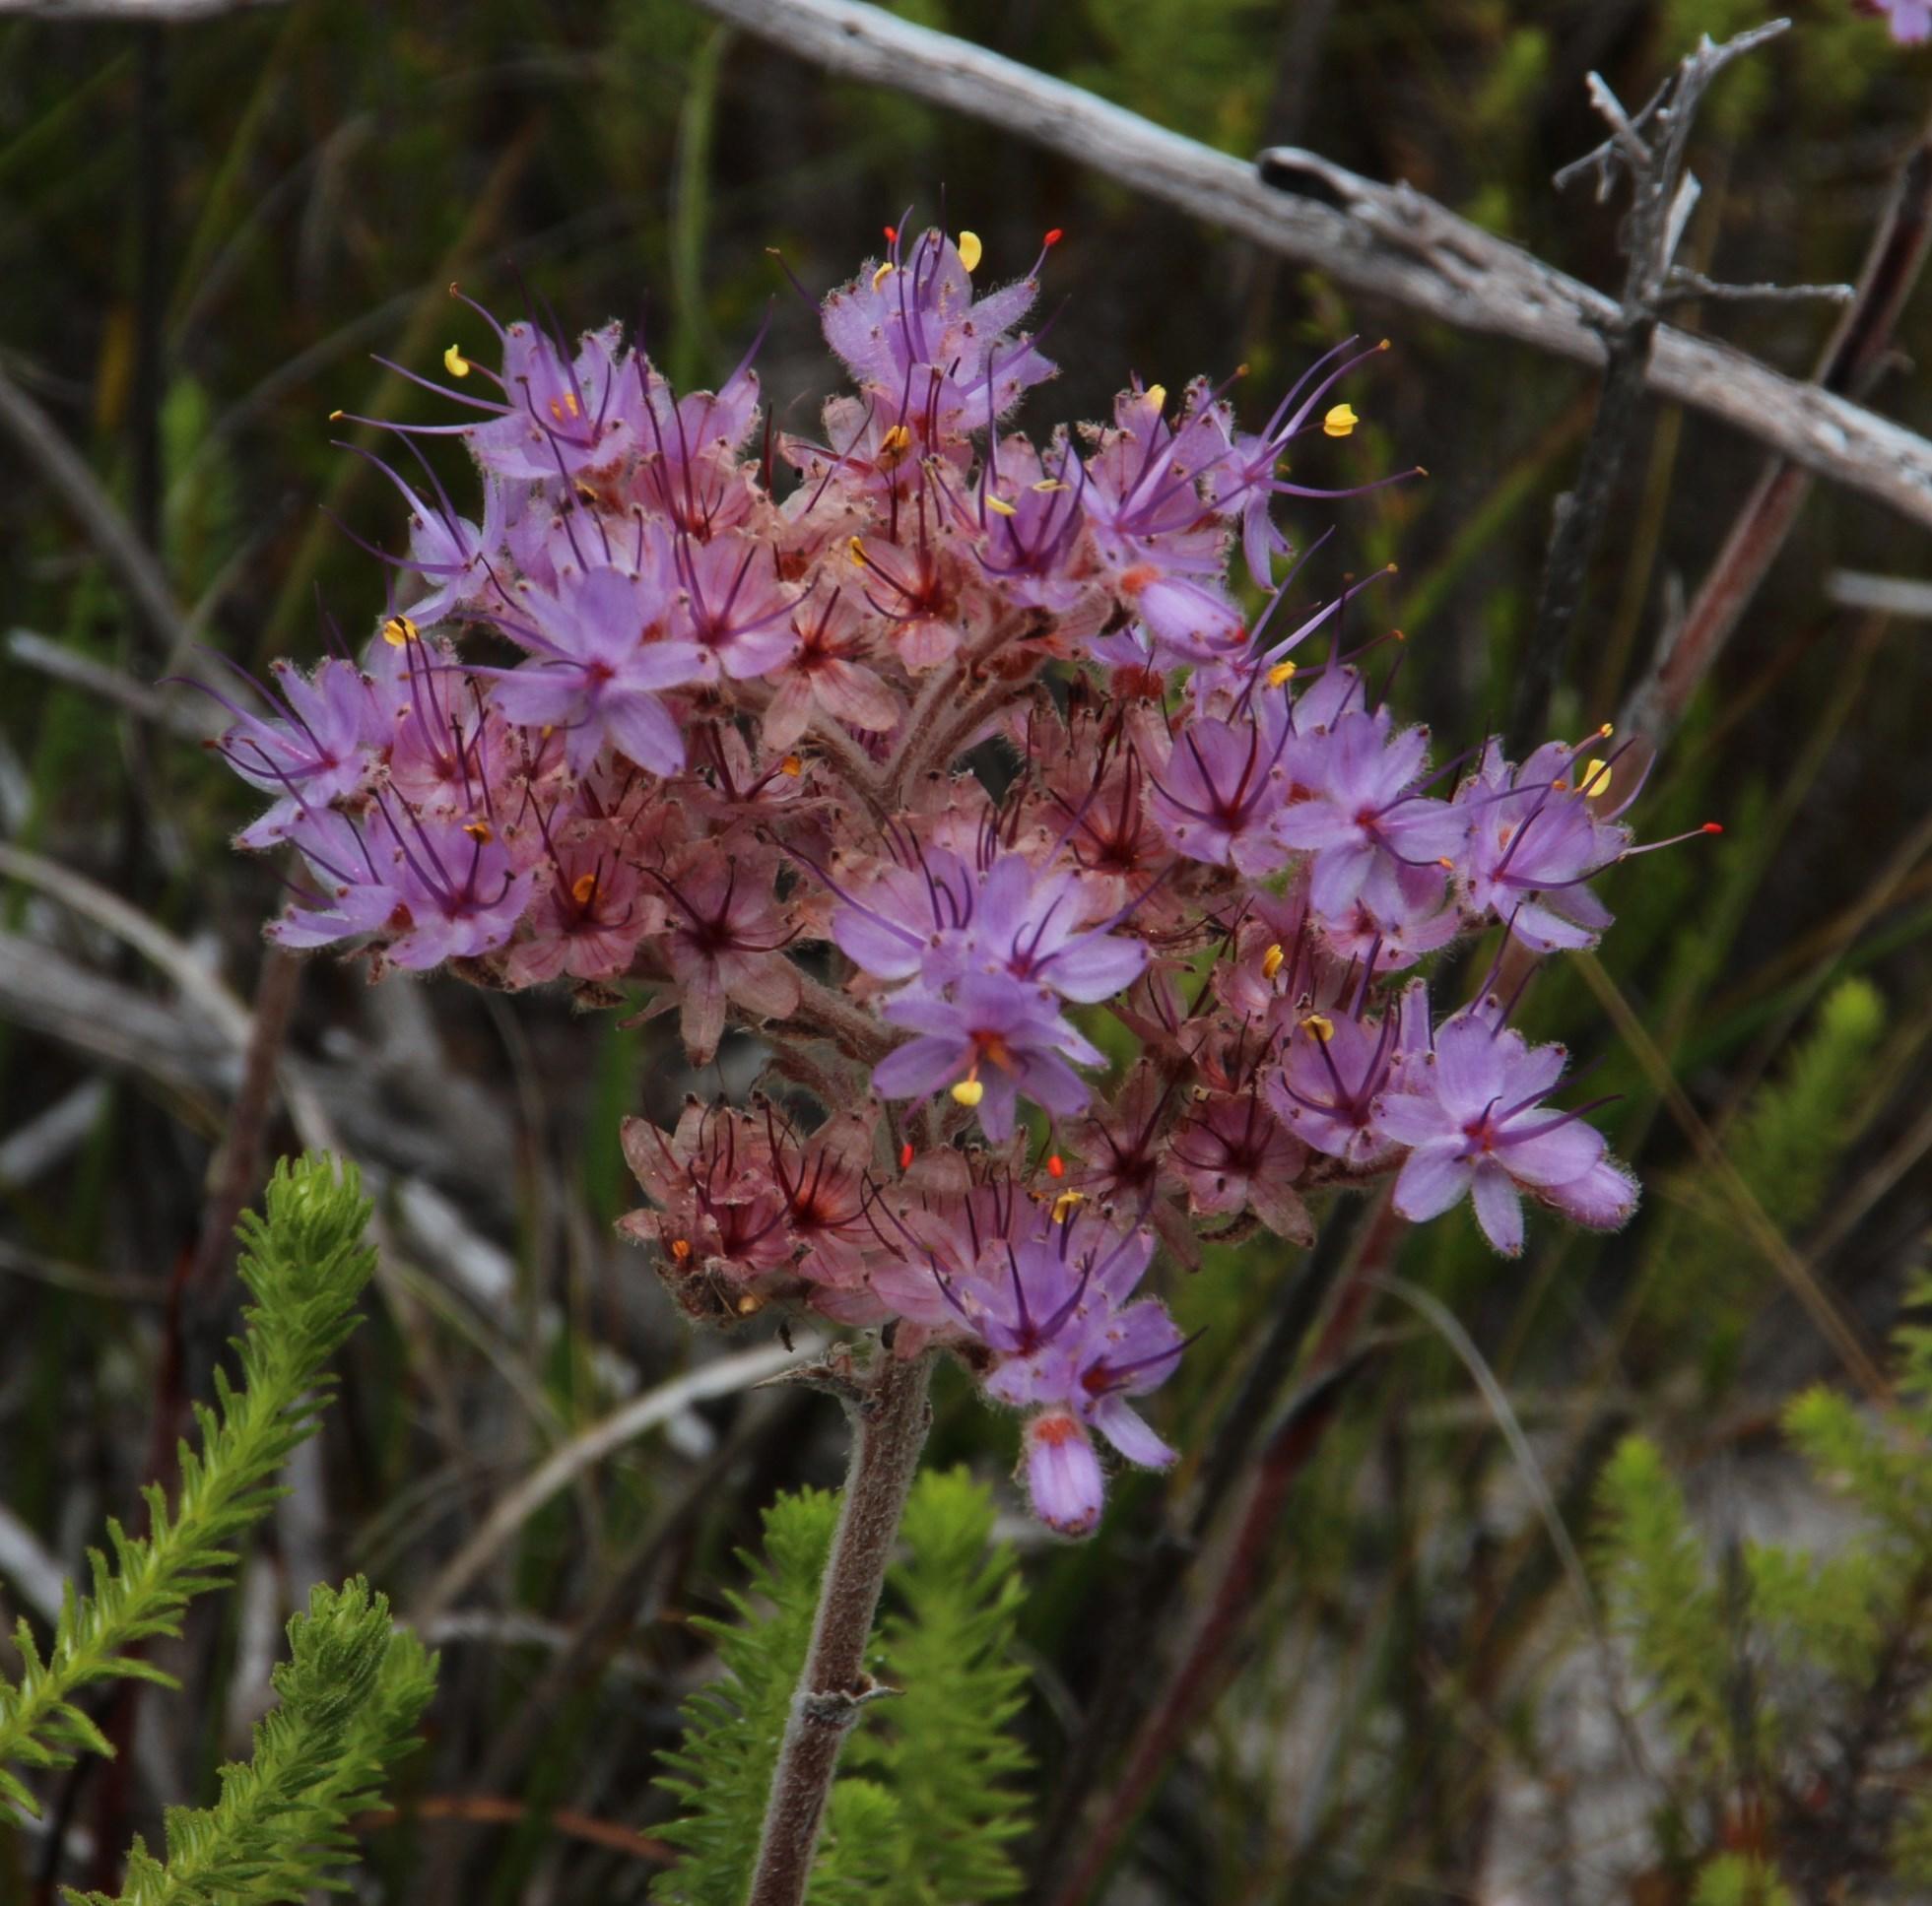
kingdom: Plantae
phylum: Tracheophyta
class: Liliopsida
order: Commelinales
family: Haemodoraceae
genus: Dilatris
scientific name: Dilatris corymbosa
